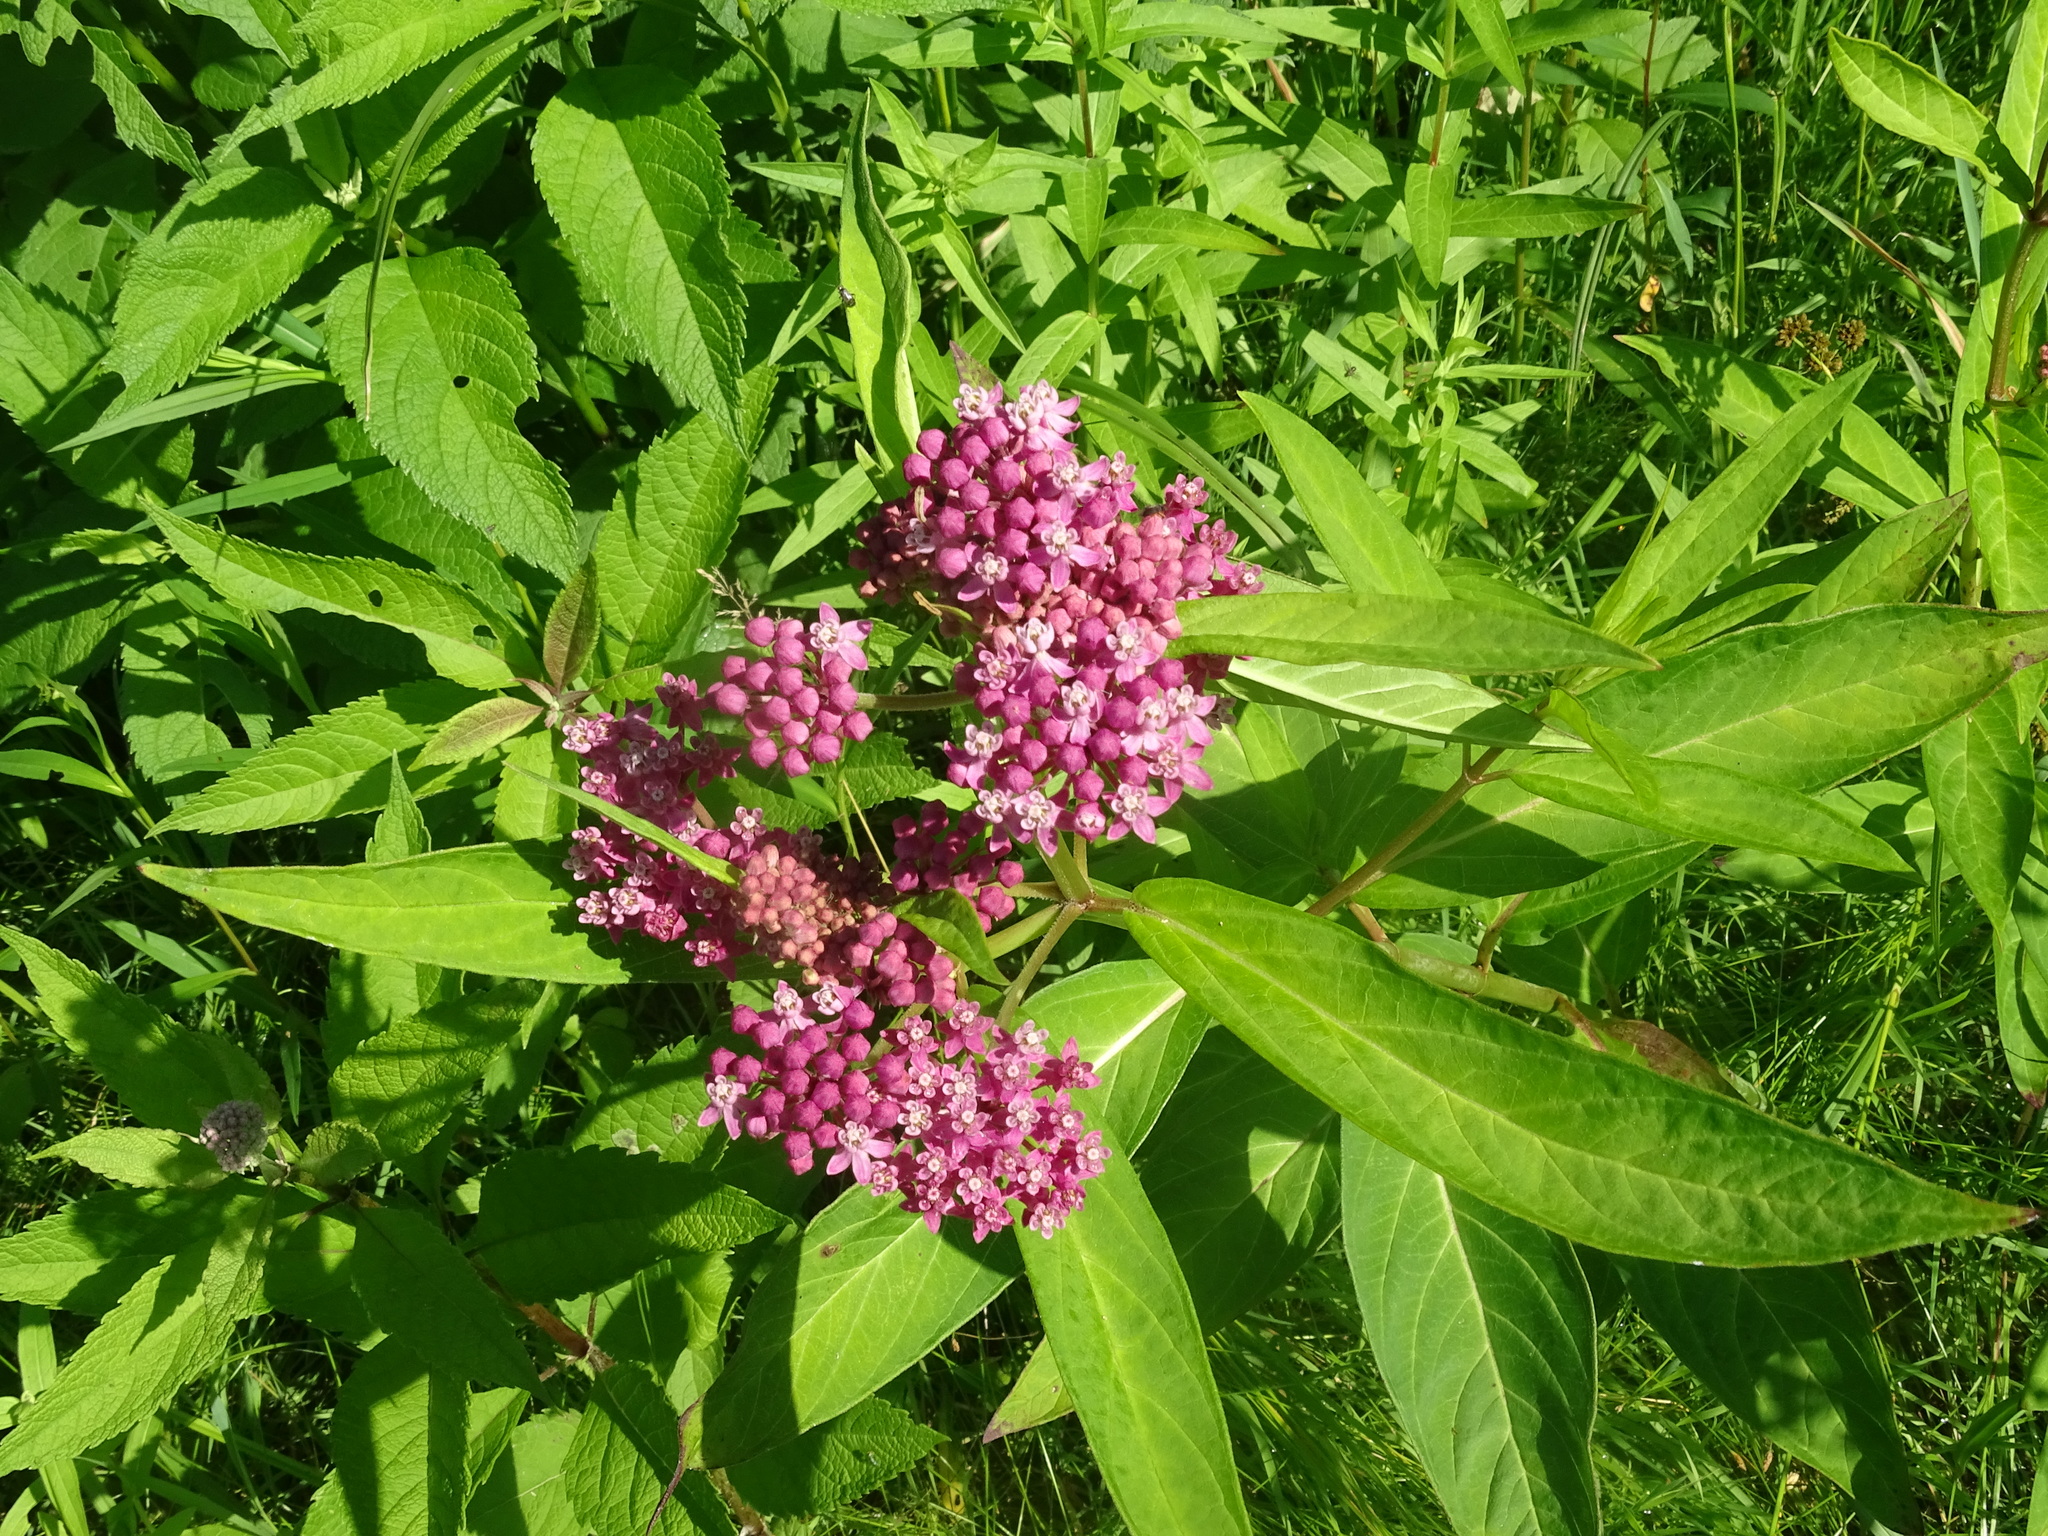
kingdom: Plantae
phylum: Tracheophyta
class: Magnoliopsida
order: Gentianales
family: Apocynaceae
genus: Asclepias
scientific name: Asclepias incarnata
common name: Swamp milkweed
